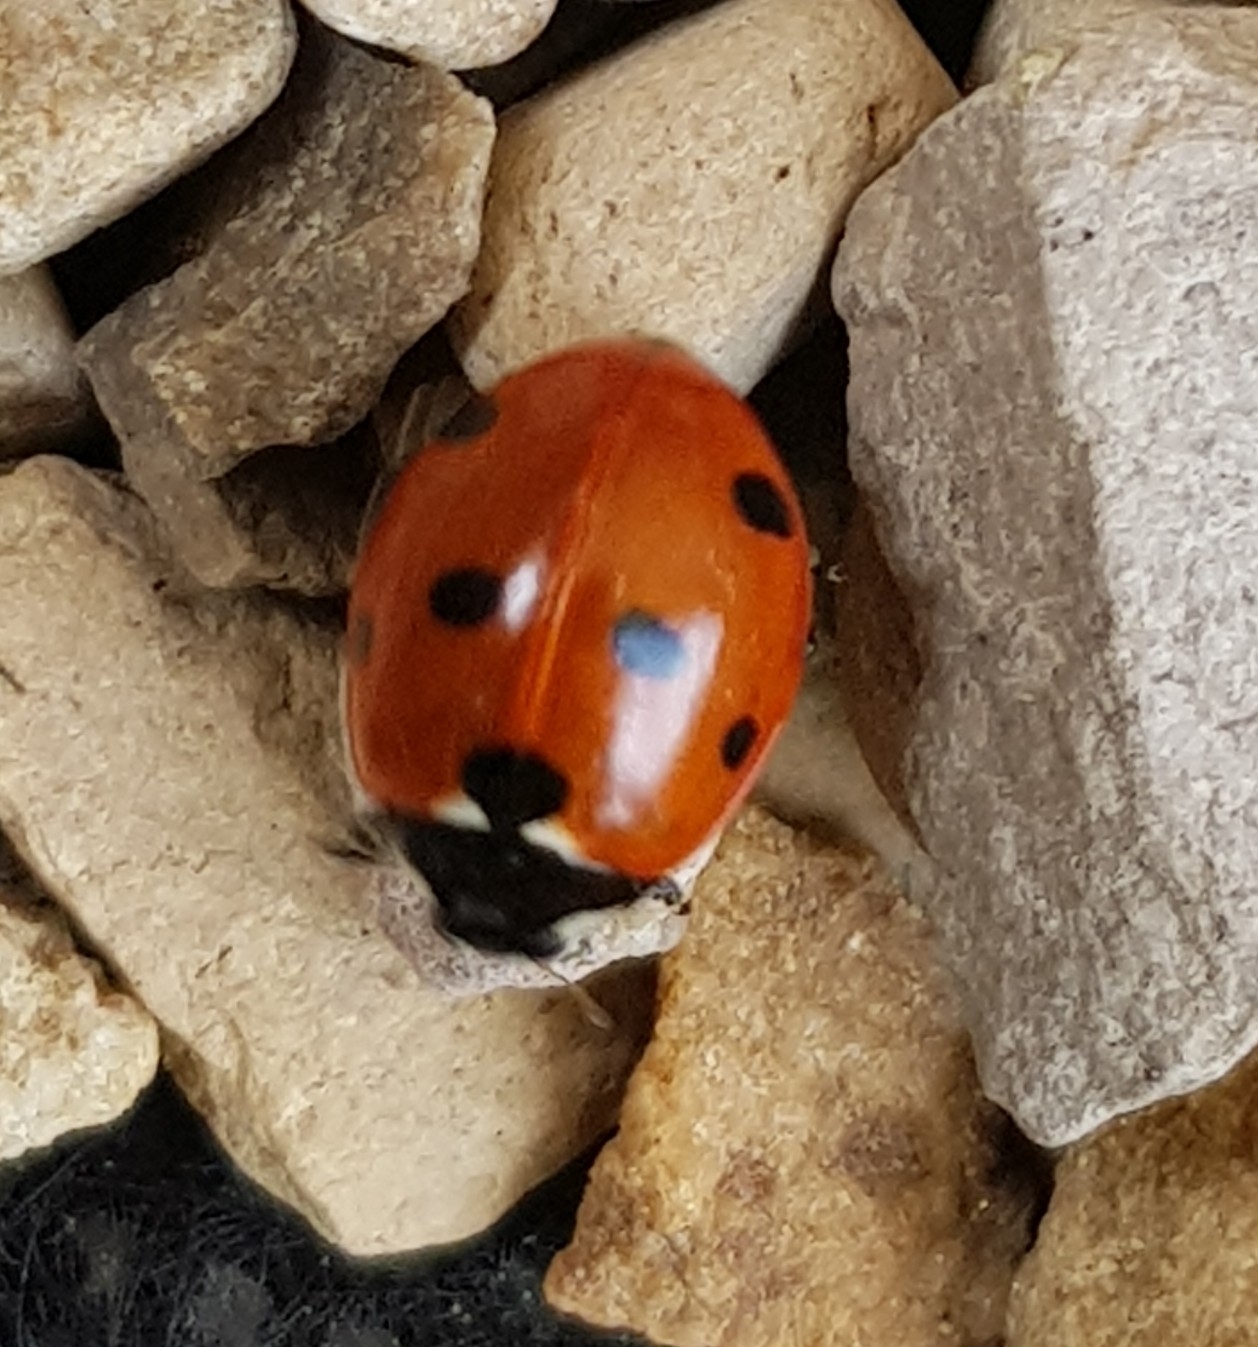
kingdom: Animalia
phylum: Arthropoda
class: Insecta
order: Coleoptera
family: Coccinellidae
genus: Coccinella
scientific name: Coccinella septempunctata
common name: Sevenspotted lady beetle
